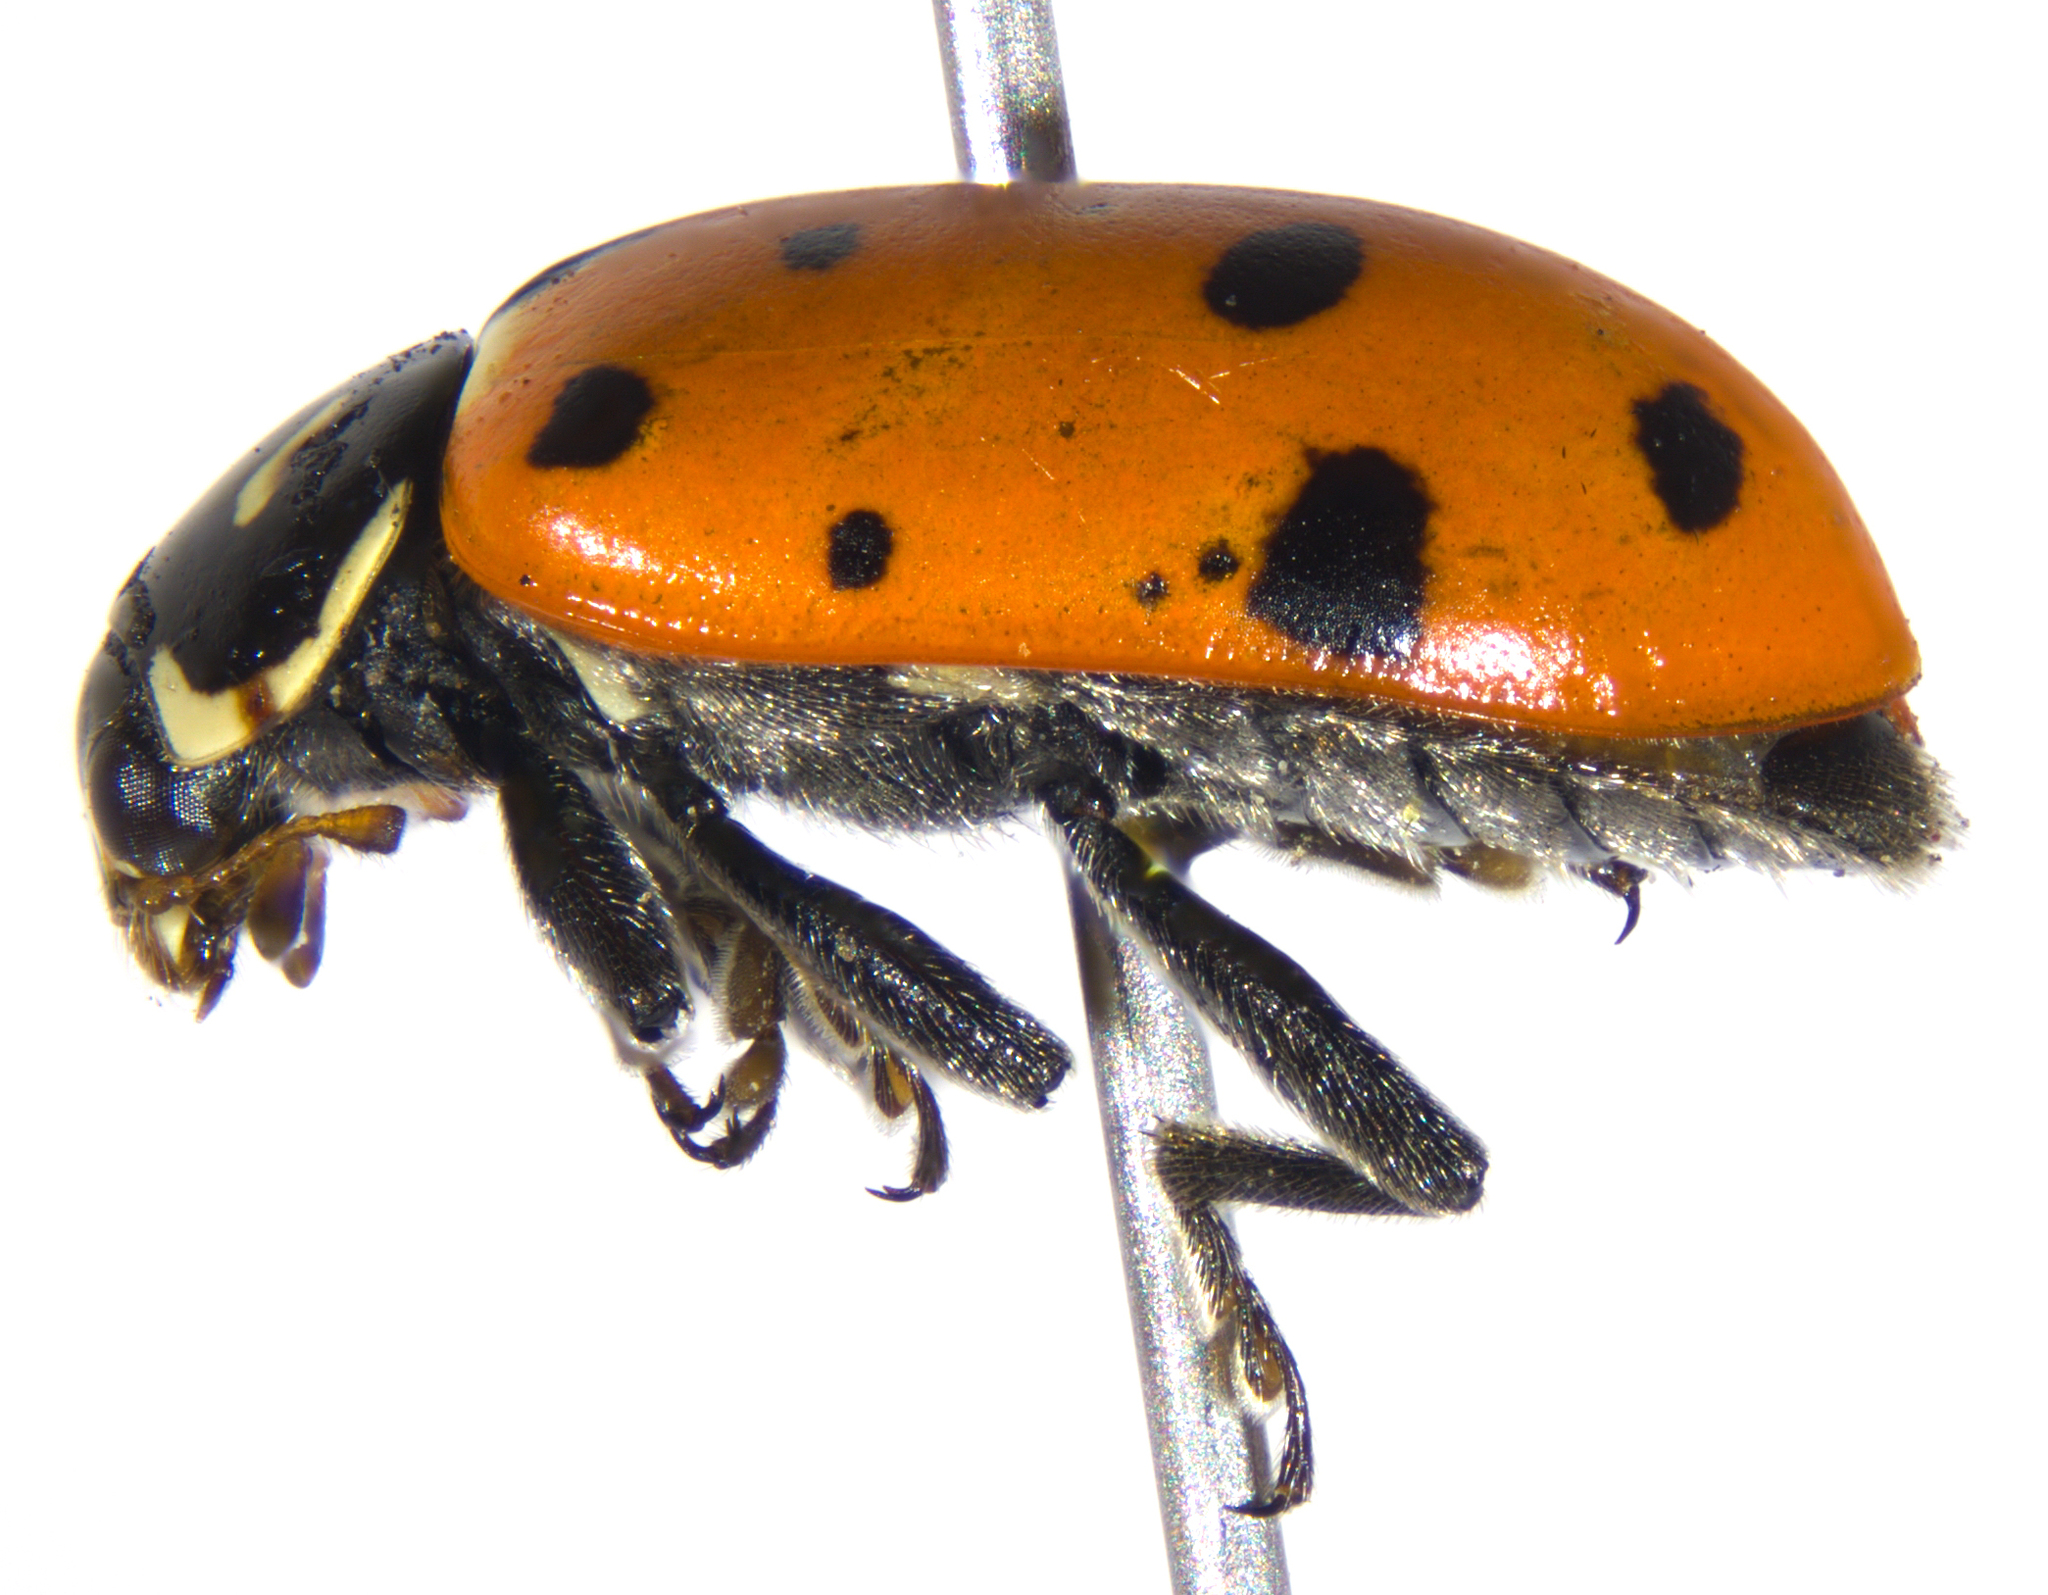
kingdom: Animalia
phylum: Arthropoda
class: Insecta
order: Coleoptera
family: Coccinellidae
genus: Hippodamia
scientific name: Hippodamia convergens
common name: Convergent lady beetle
